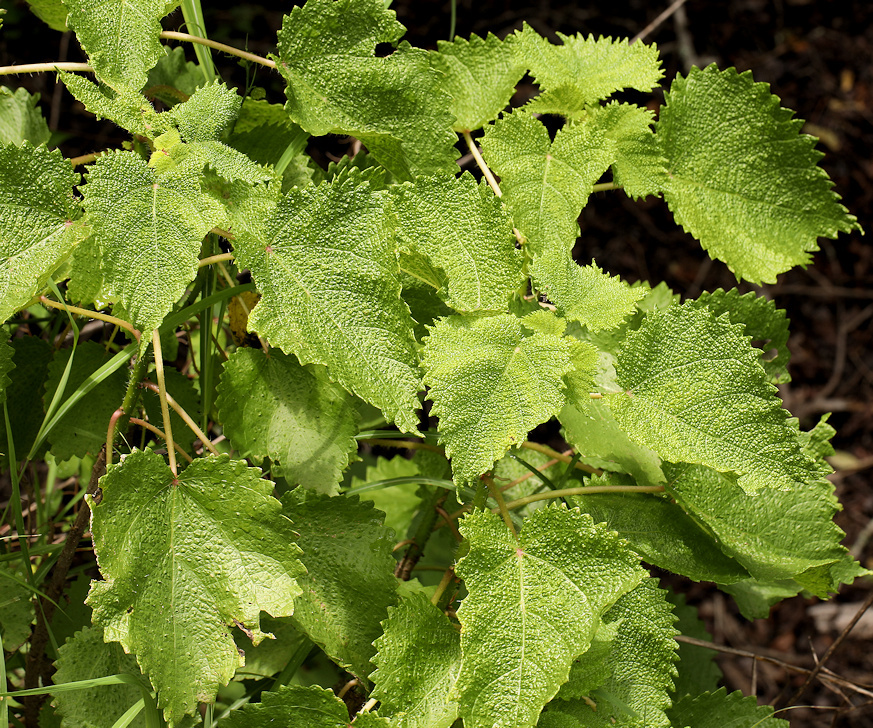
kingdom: Plantae
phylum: Tracheophyta
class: Magnoliopsida
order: Rosales
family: Urticaceae
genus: Obetia
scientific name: Obetia tenax
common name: Rock tree nettle
